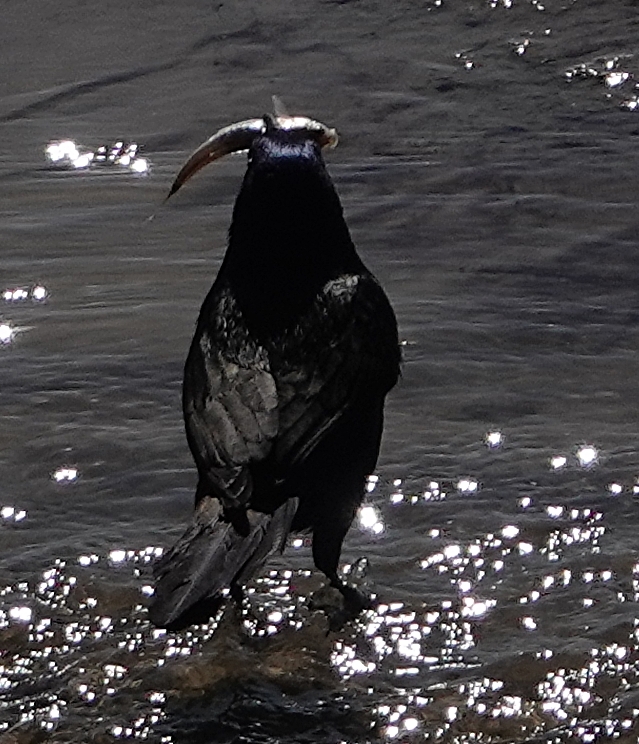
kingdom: Animalia
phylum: Chordata
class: Aves
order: Passeriformes
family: Icteridae
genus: Quiscalus
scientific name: Quiscalus quiscula
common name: Common grackle
